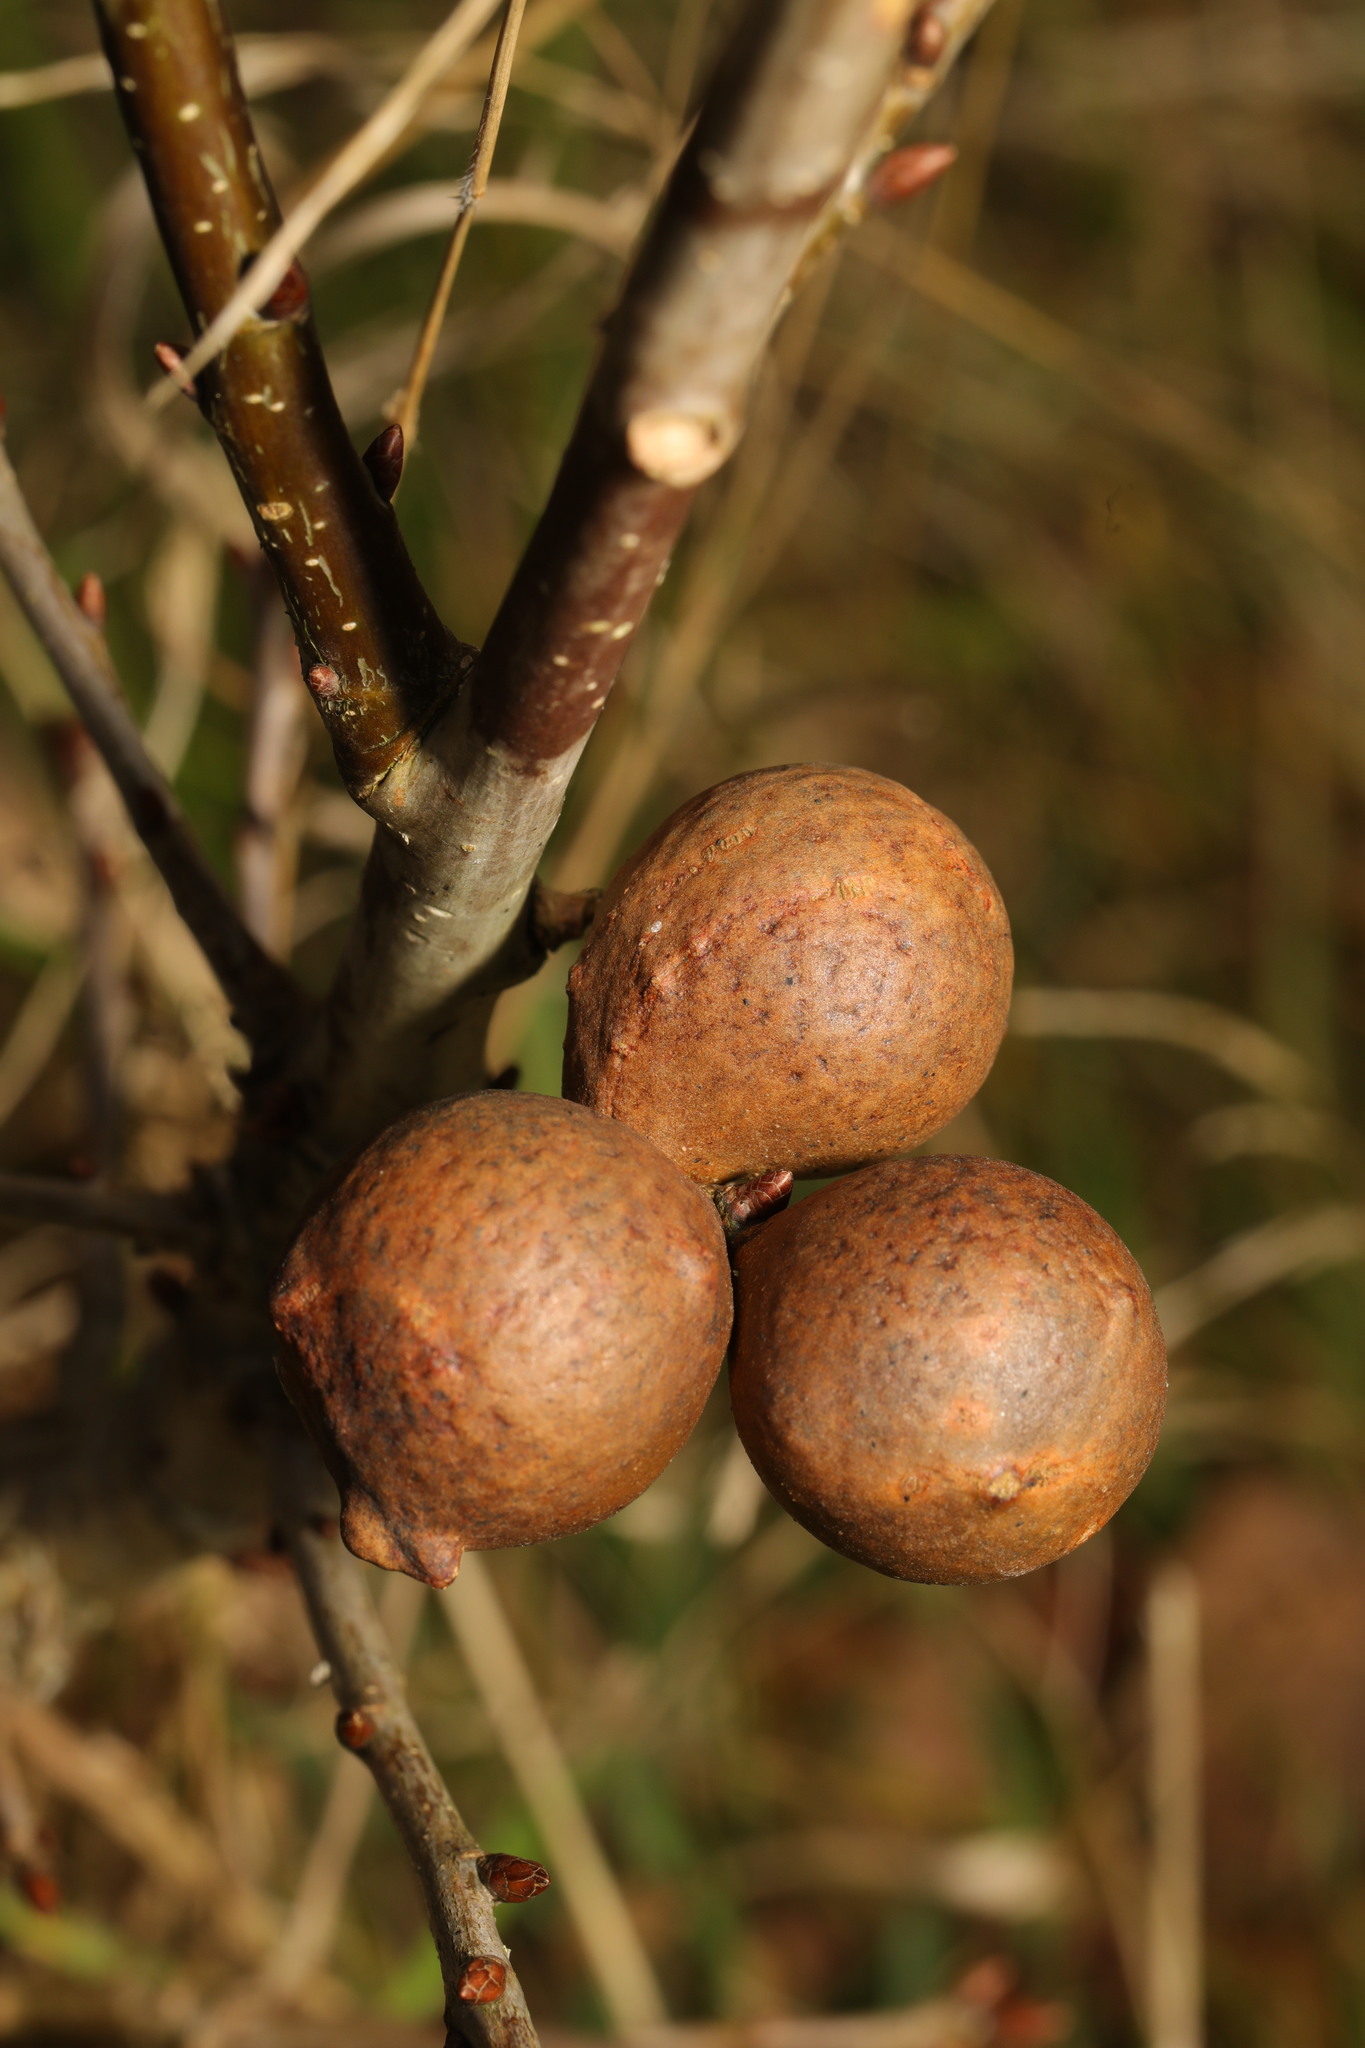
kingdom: Animalia
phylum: Arthropoda
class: Insecta
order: Hymenoptera
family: Cynipidae
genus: Andricus
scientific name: Andricus kollari
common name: Marble gall
